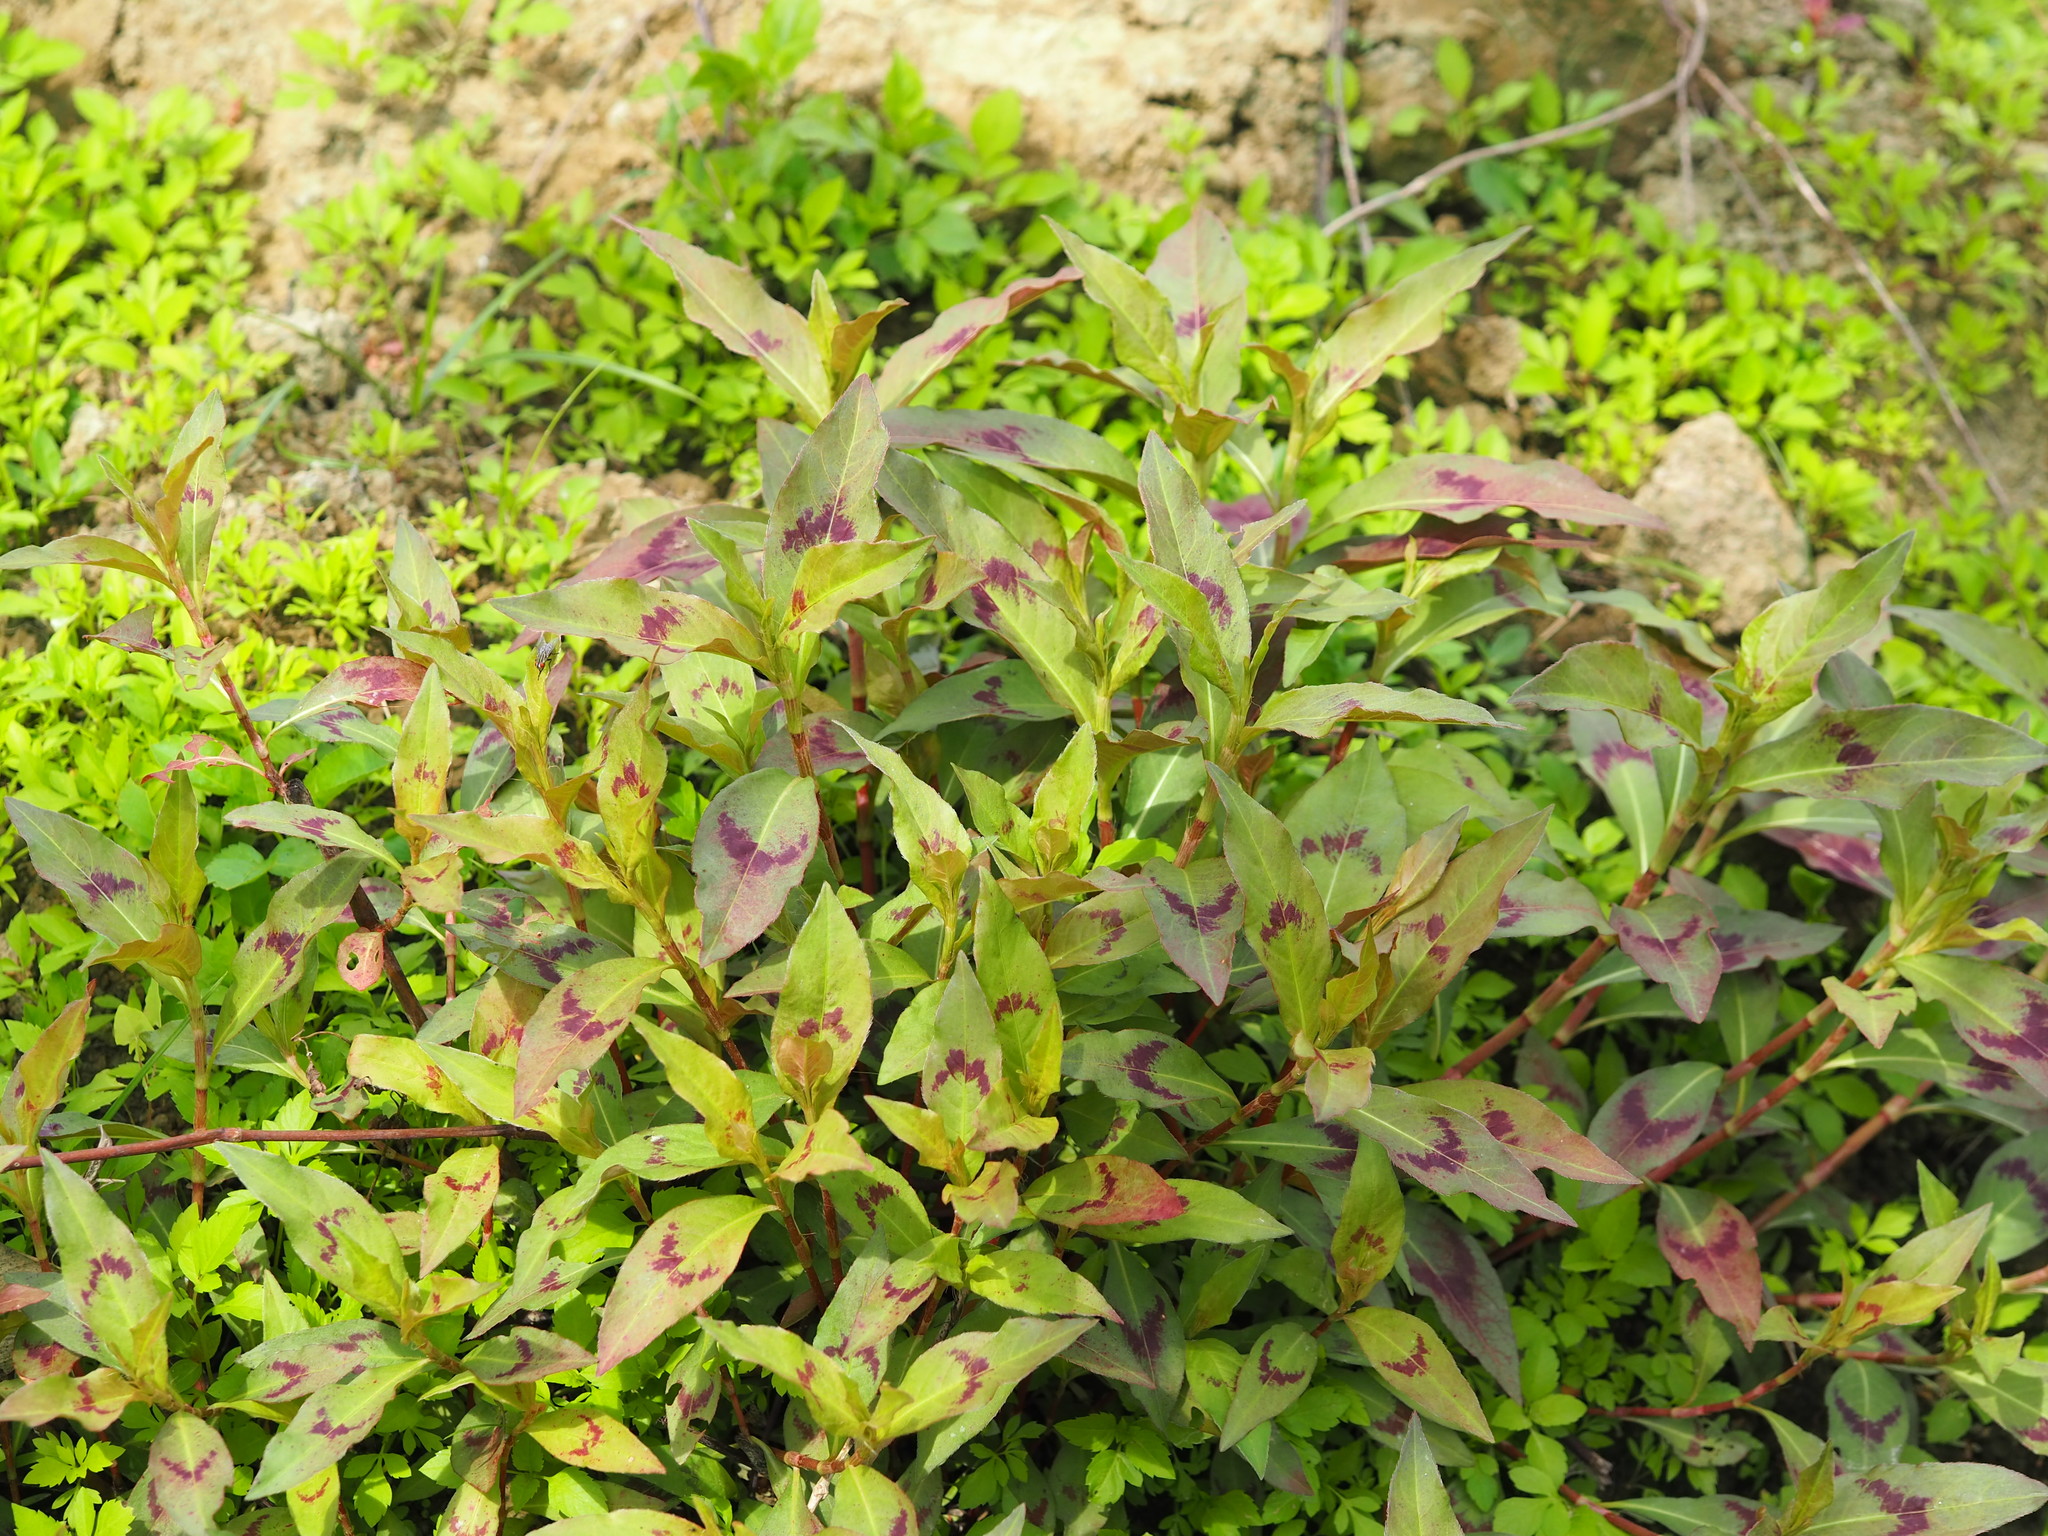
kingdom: Plantae
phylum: Tracheophyta
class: Magnoliopsida
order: Caryophyllales
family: Polygonaceae
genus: Persicaria
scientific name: Persicaria barbata
